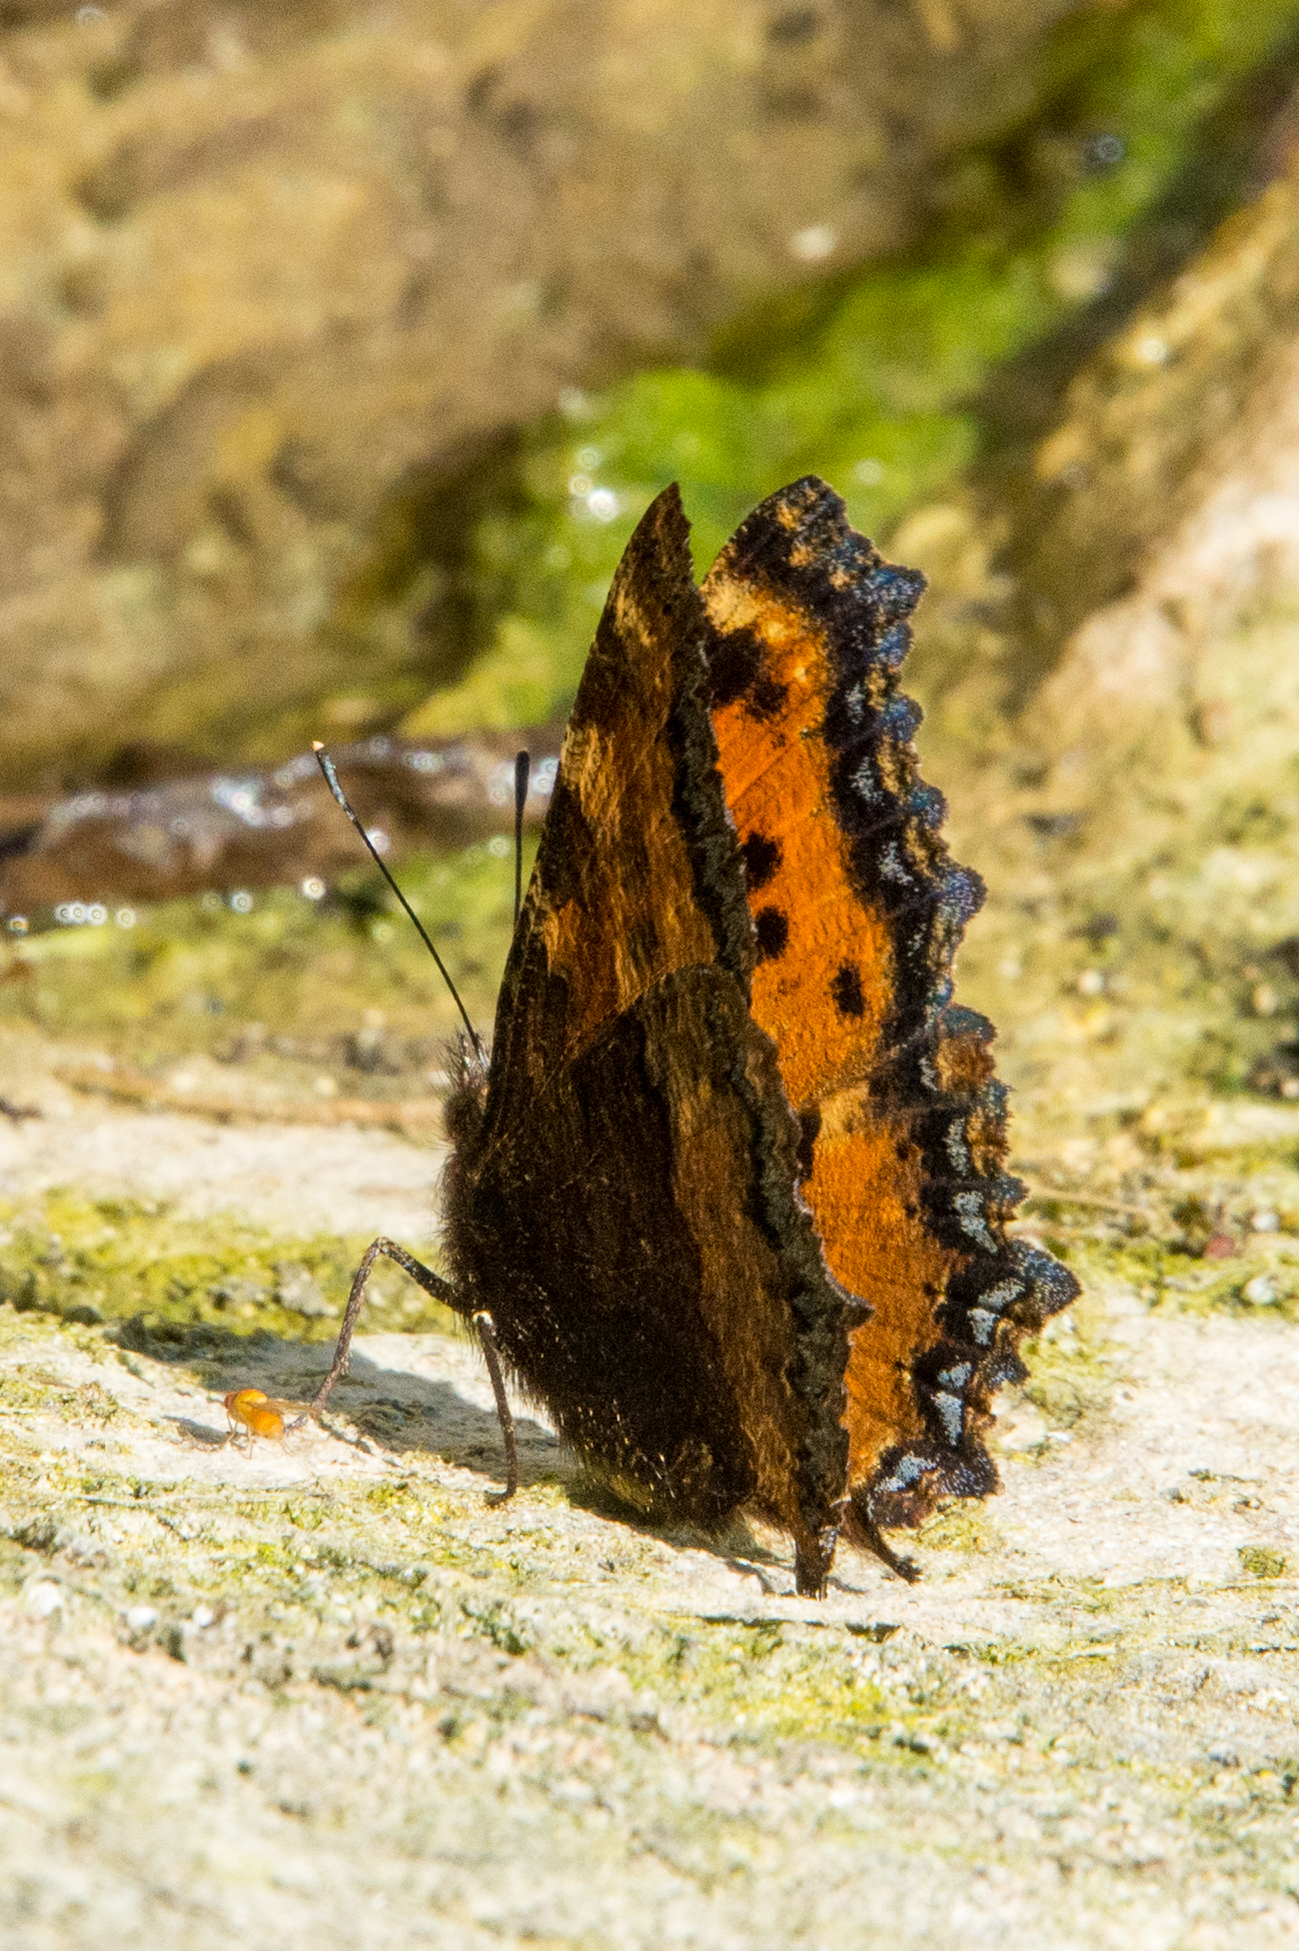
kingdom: Animalia
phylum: Arthropoda
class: Insecta
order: Lepidoptera
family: Nymphalidae
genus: Nymphalis
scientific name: Nymphalis polychloros
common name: Large tortoiseshell
